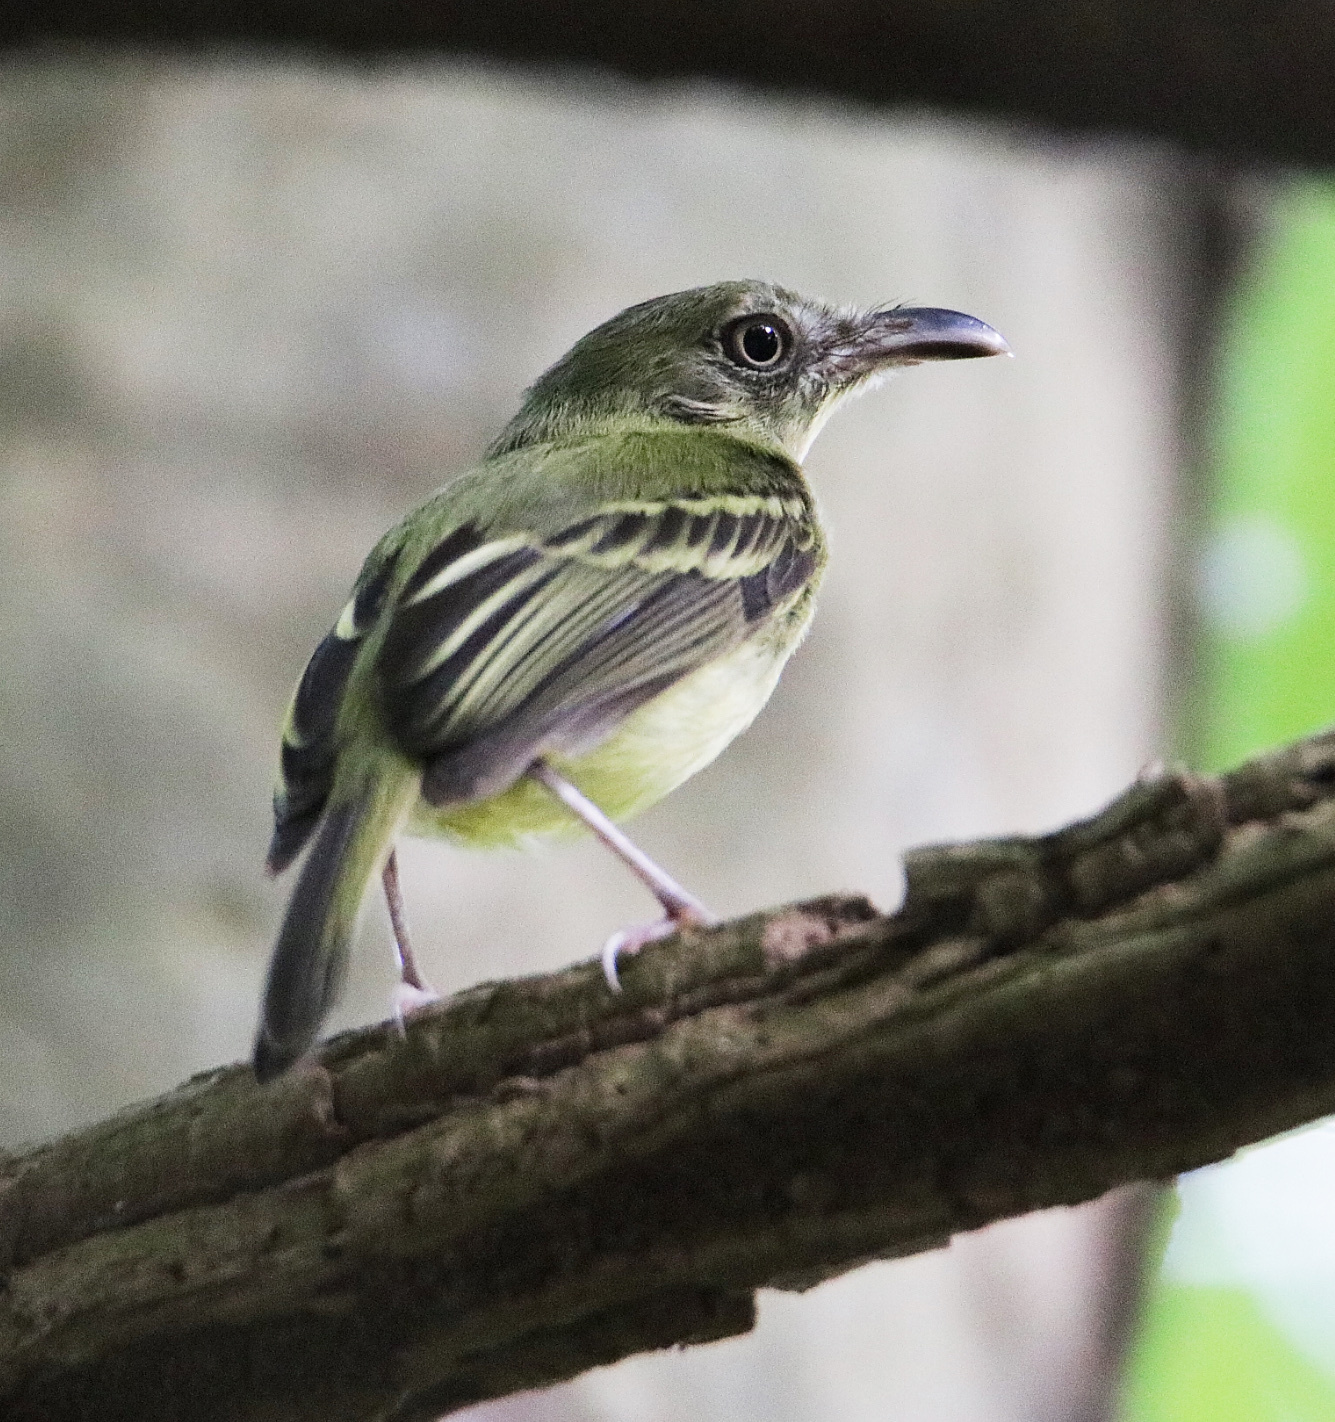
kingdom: Animalia
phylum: Chordata
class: Aves
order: Passeriformes
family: Tyrannidae
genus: Oncostoma
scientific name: Oncostoma olivaceum
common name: Southern bentbill
